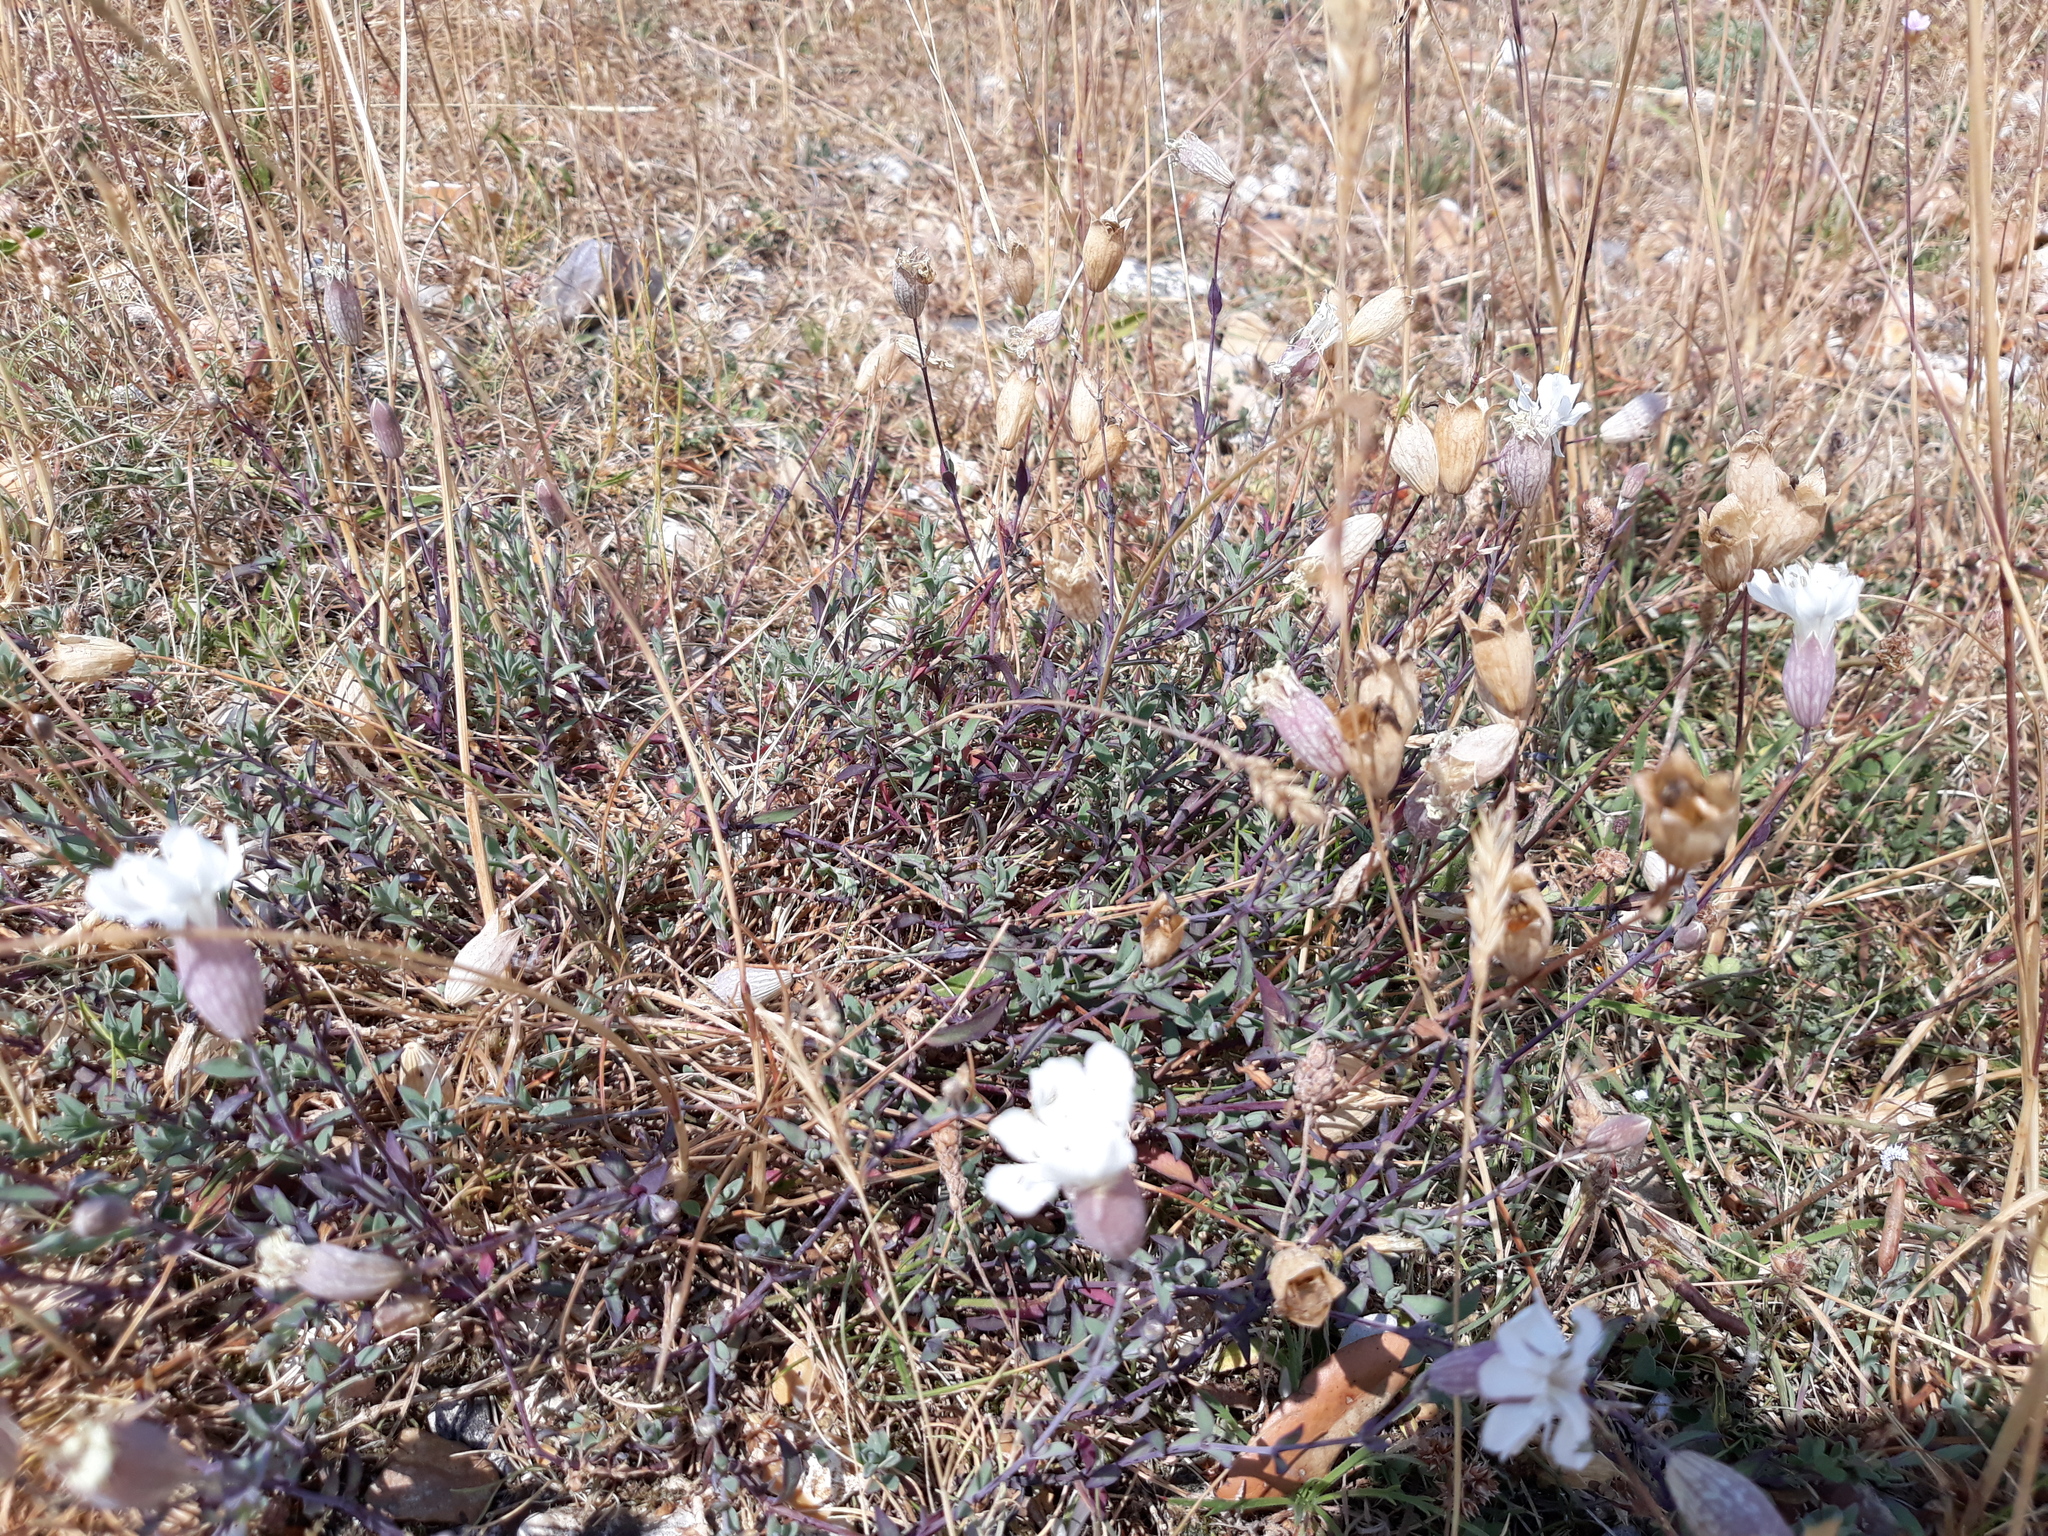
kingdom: Plantae
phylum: Tracheophyta
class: Magnoliopsida
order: Caryophyllales
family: Caryophyllaceae
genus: Silene
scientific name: Silene uniflora
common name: Sea campion
